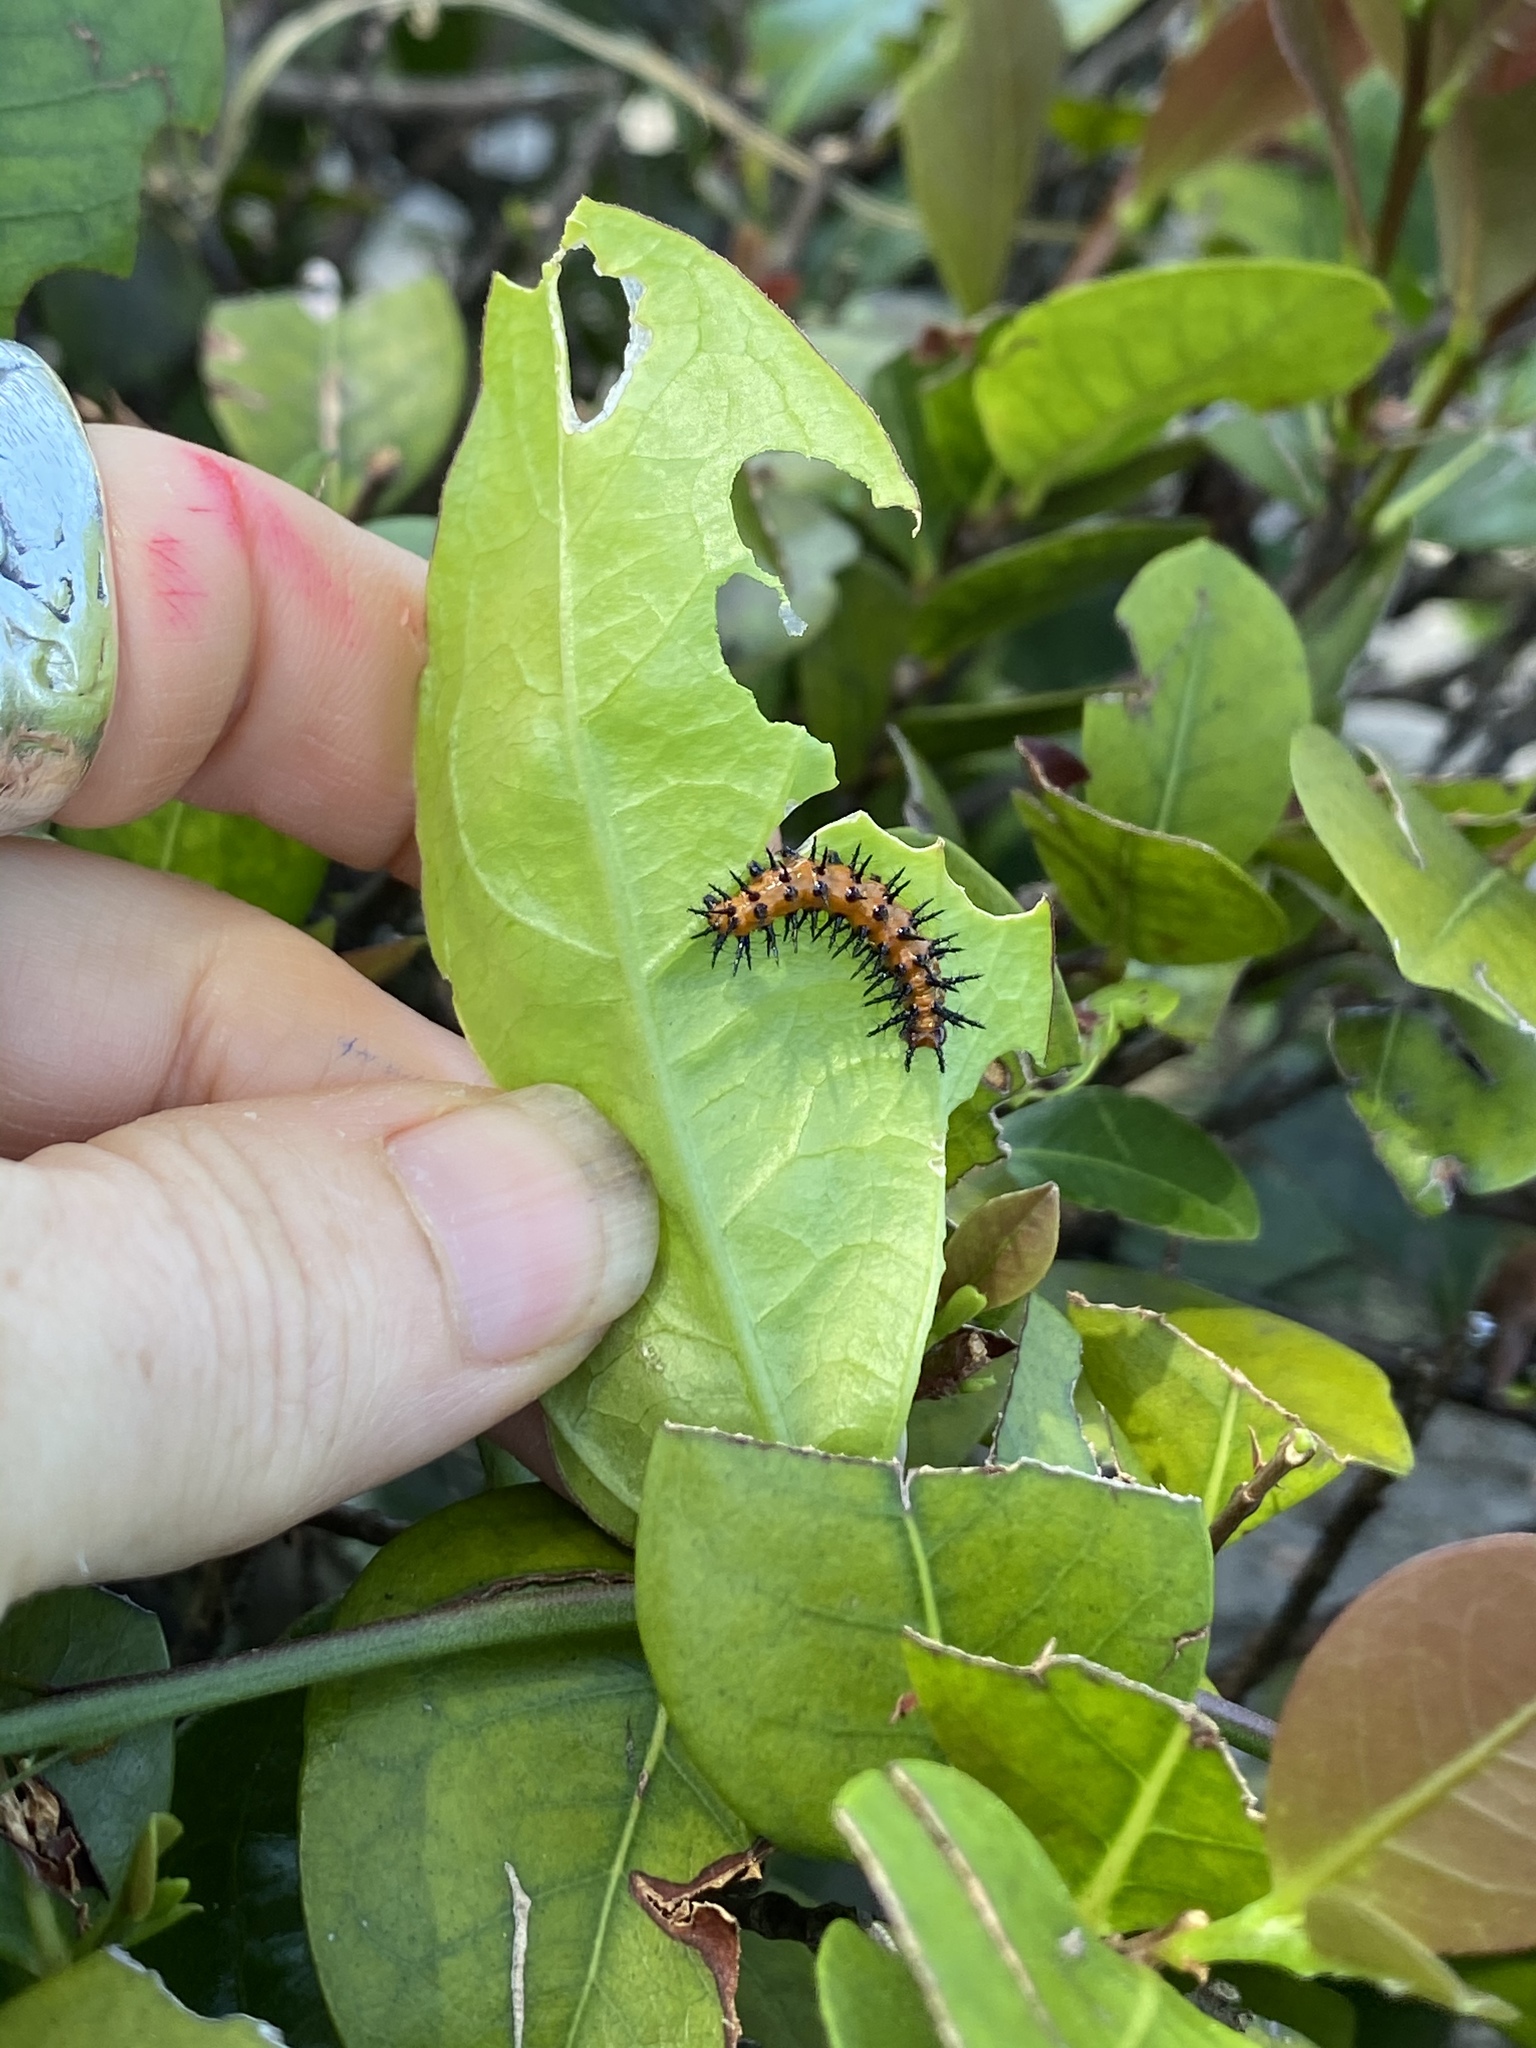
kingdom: Animalia
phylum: Arthropoda
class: Insecta
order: Lepidoptera
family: Nymphalidae
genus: Dione
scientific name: Dione vanillae
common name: Gulf fritillary
